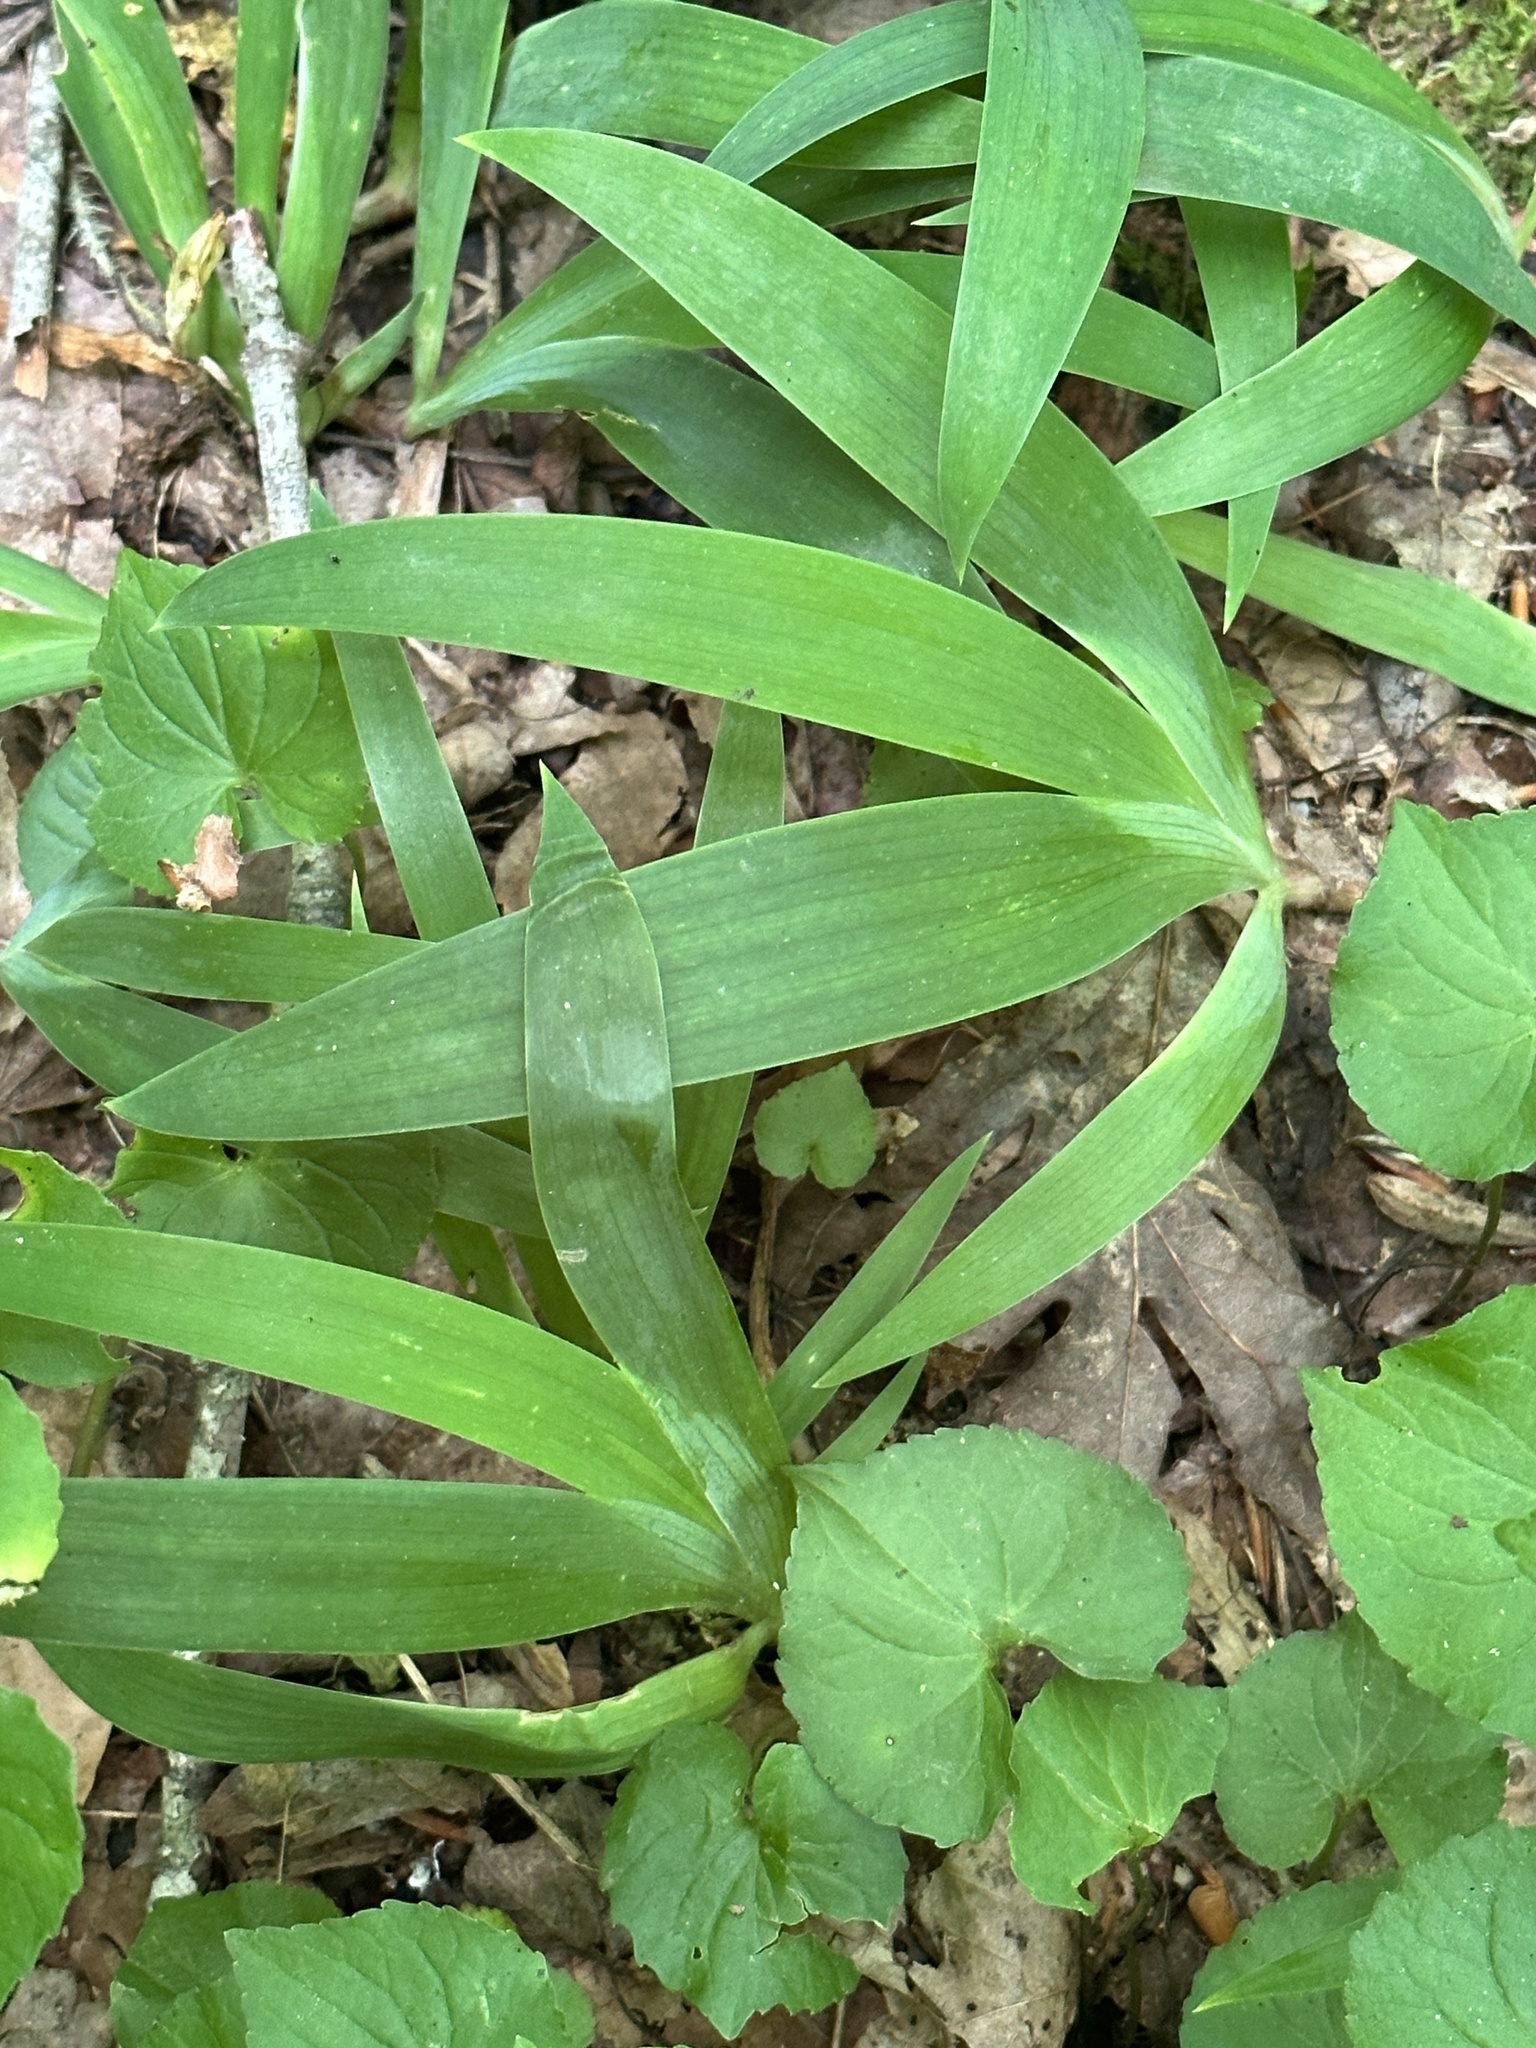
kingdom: Plantae
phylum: Tracheophyta
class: Liliopsida
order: Asparagales
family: Iridaceae
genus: Iris
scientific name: Iris cristata
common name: Crested iris
